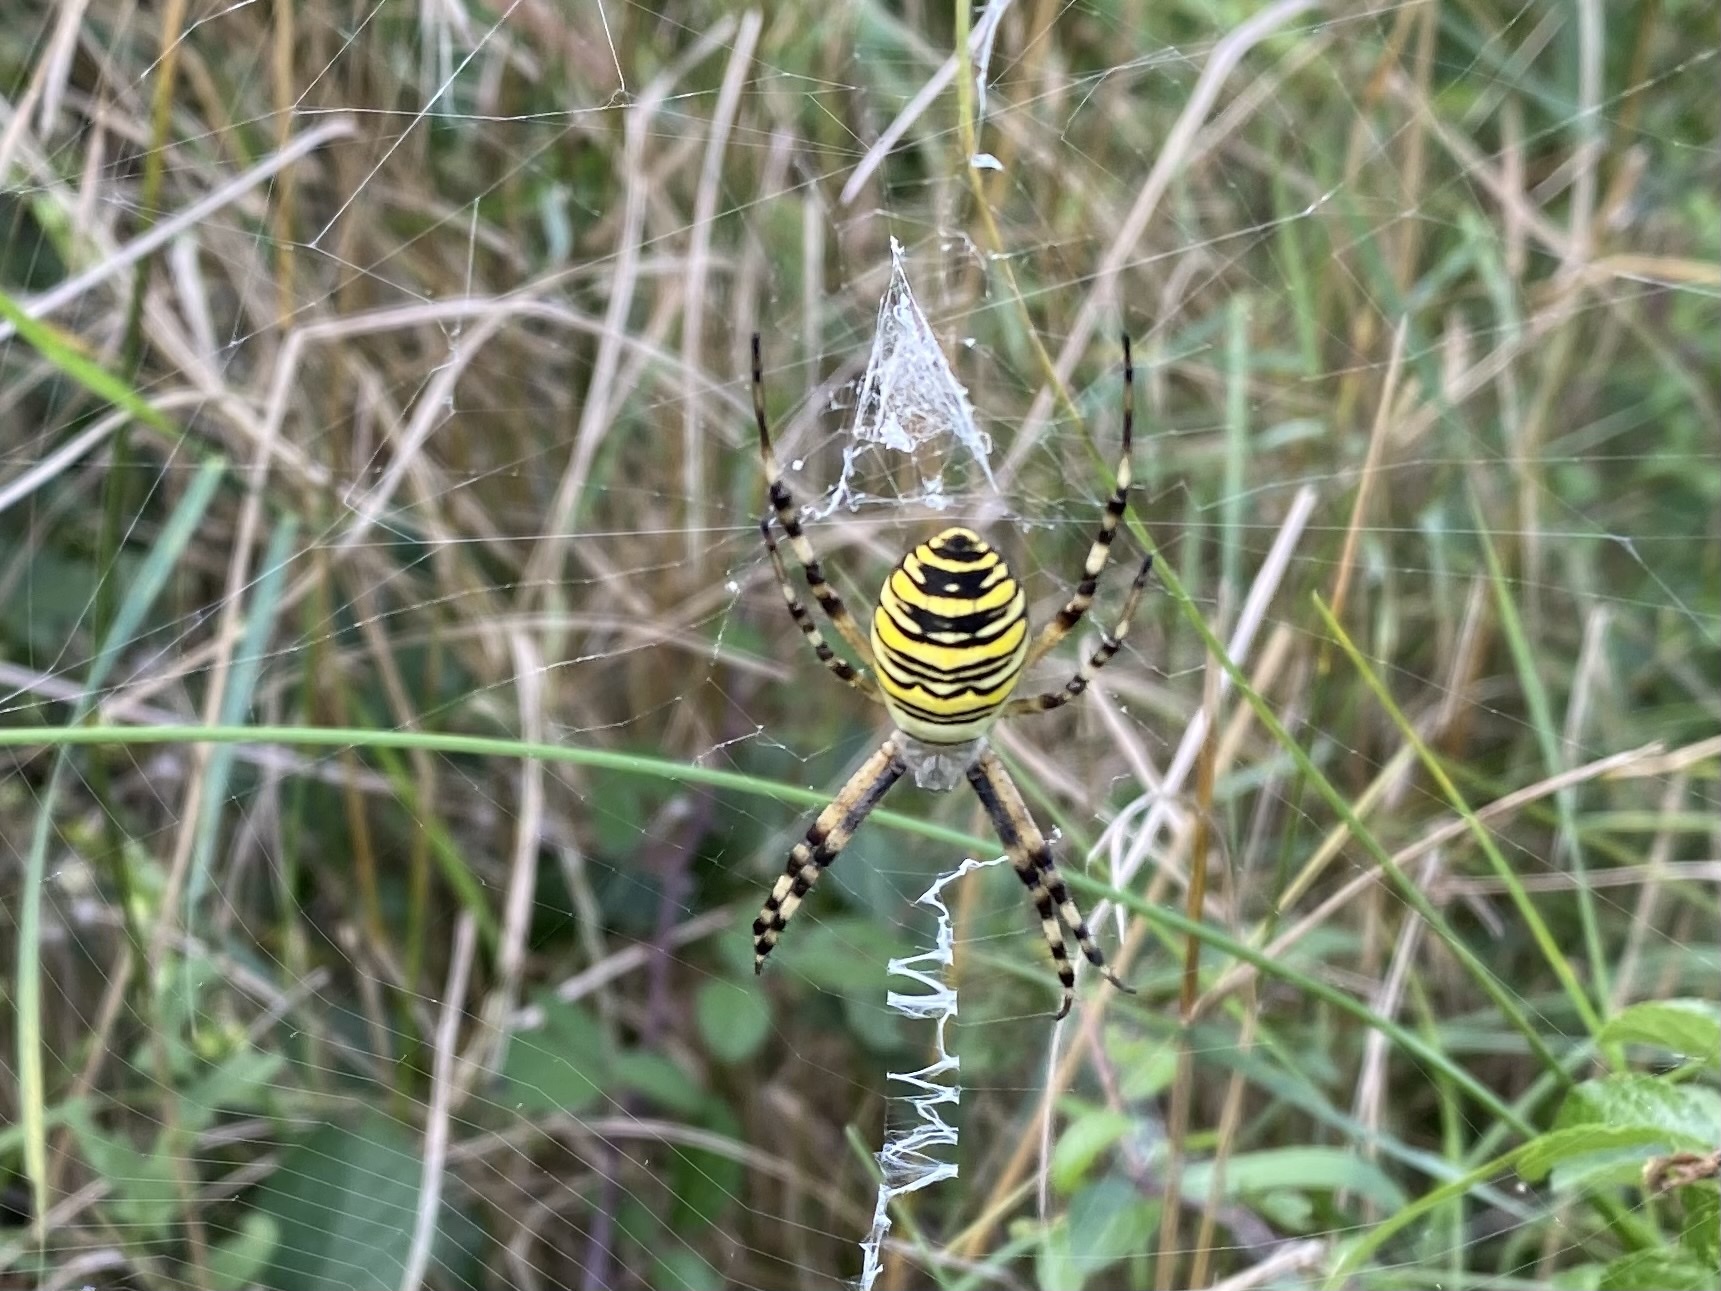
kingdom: Animalia
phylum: Arthropoda
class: Arachnida
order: Araneae
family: Araneidae
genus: Argiope
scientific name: Argiope bruennichi
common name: Wasp spider
